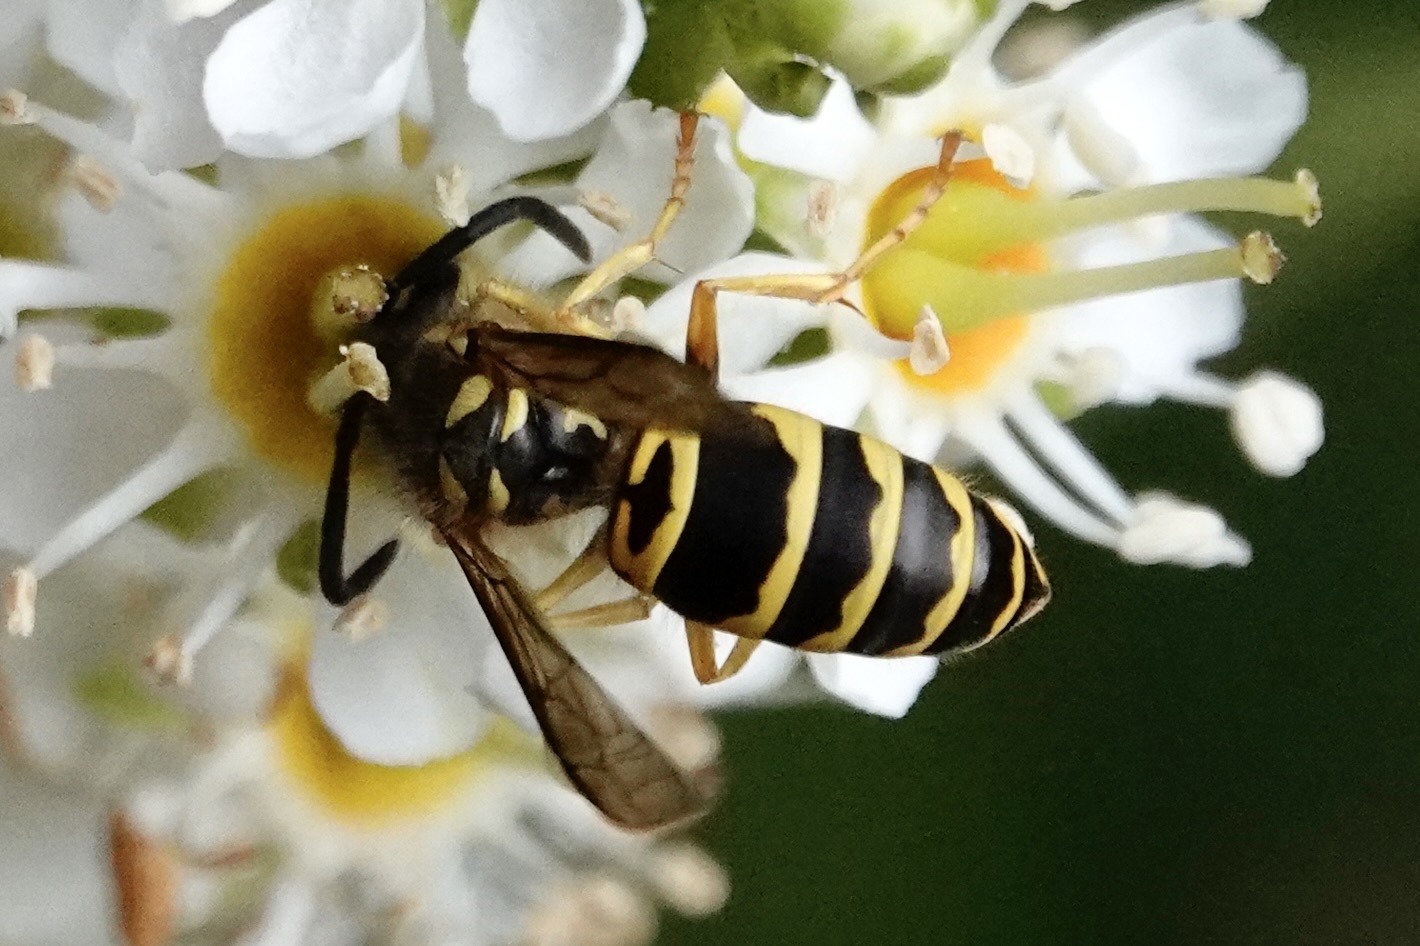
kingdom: Animalia
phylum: Arthropoda
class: Insecta
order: Hymenoptera
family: Vespidae
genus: Vespula
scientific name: Vespula maculifrons
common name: Eastern yellowjacket
